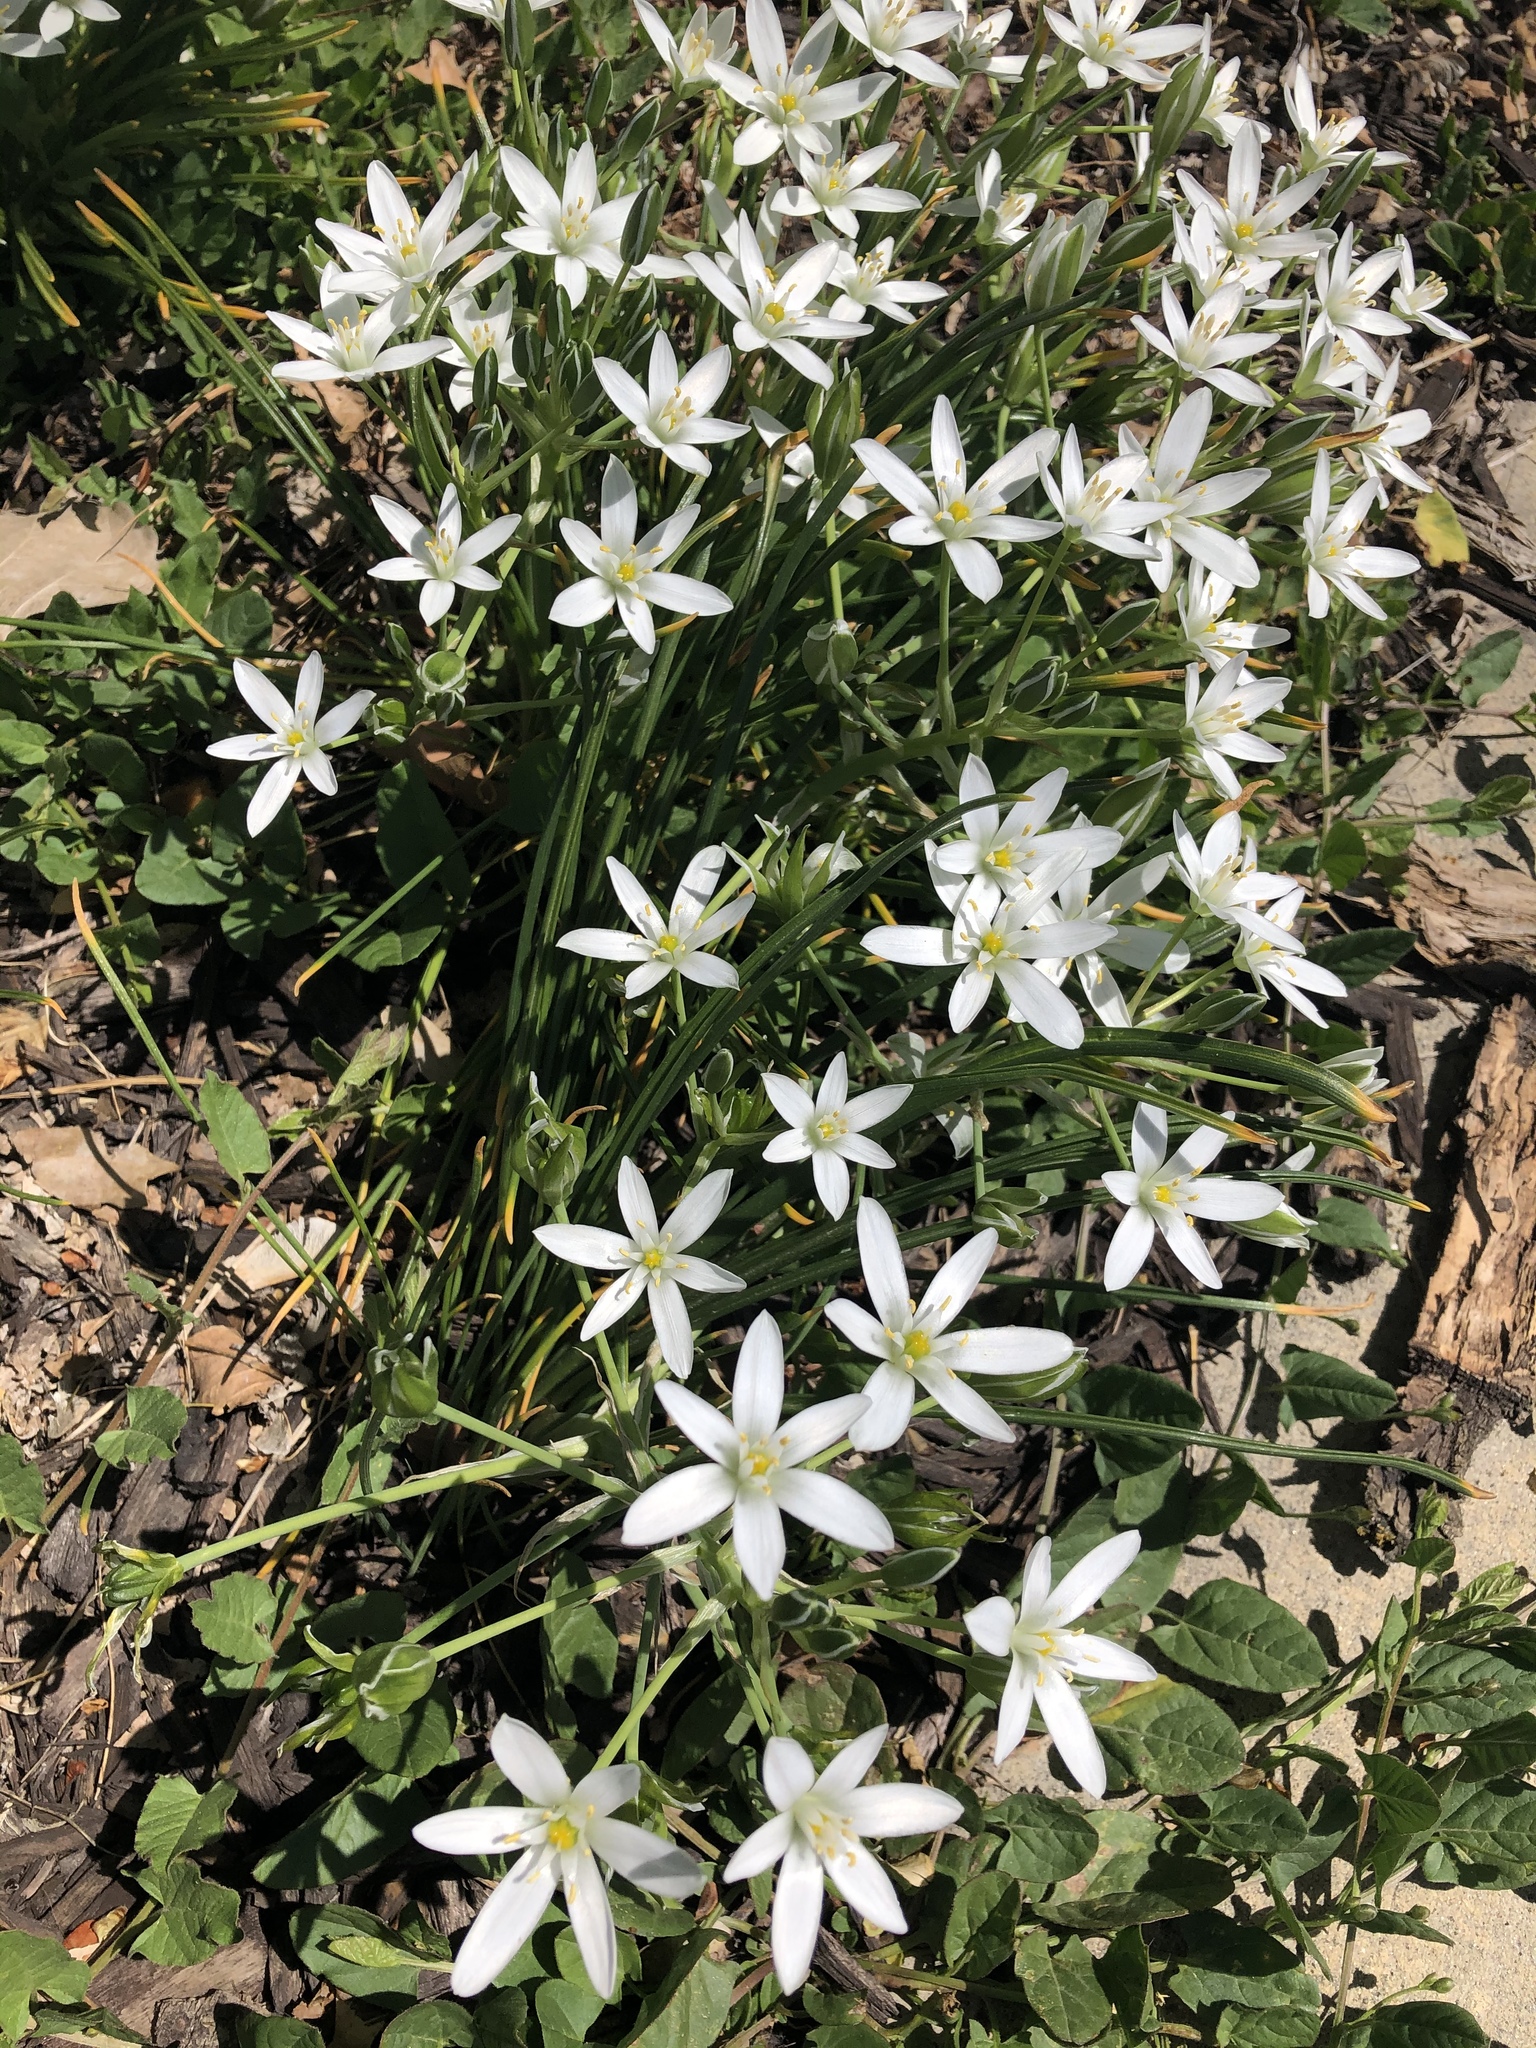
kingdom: Plantae
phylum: Tracheophyta
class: Liliopsida
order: Asparagales
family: Asparagaceae
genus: Ornithogalum
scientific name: Ornithogalum umbellatum
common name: Garden star-of-bethlehem
